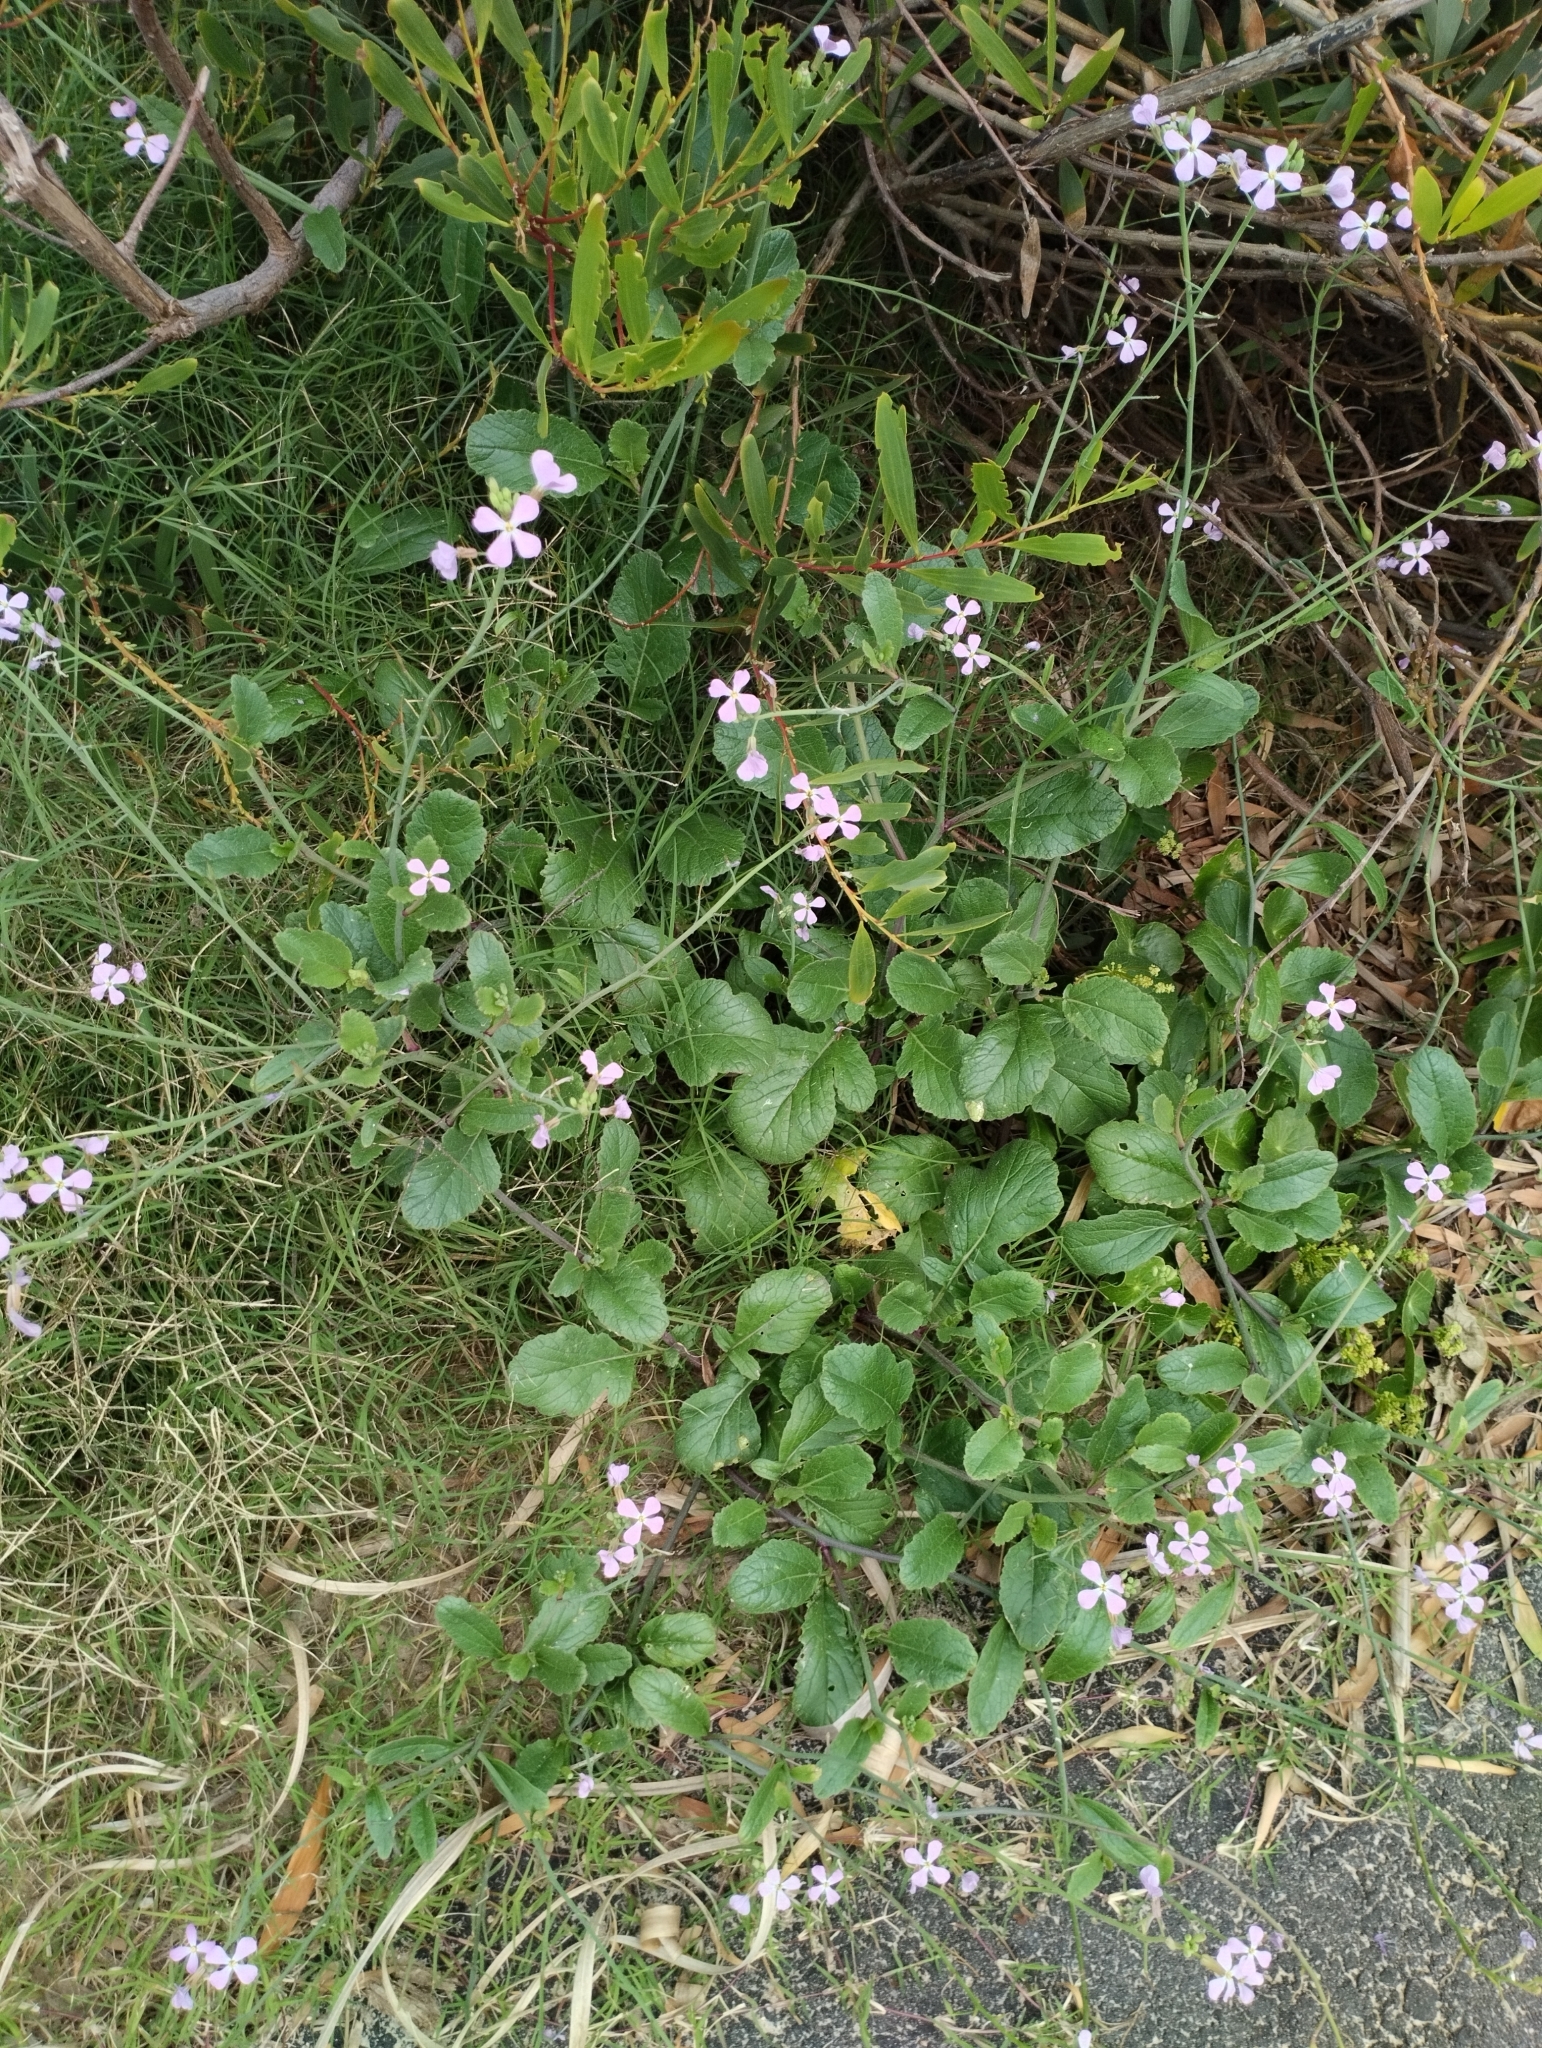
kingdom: Plantae
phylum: Tracheophyta
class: Magnoliopsida
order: Brassicales
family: Brassicaceae
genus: Raphanus
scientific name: Raphanus sativus
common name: Cultivated radish
